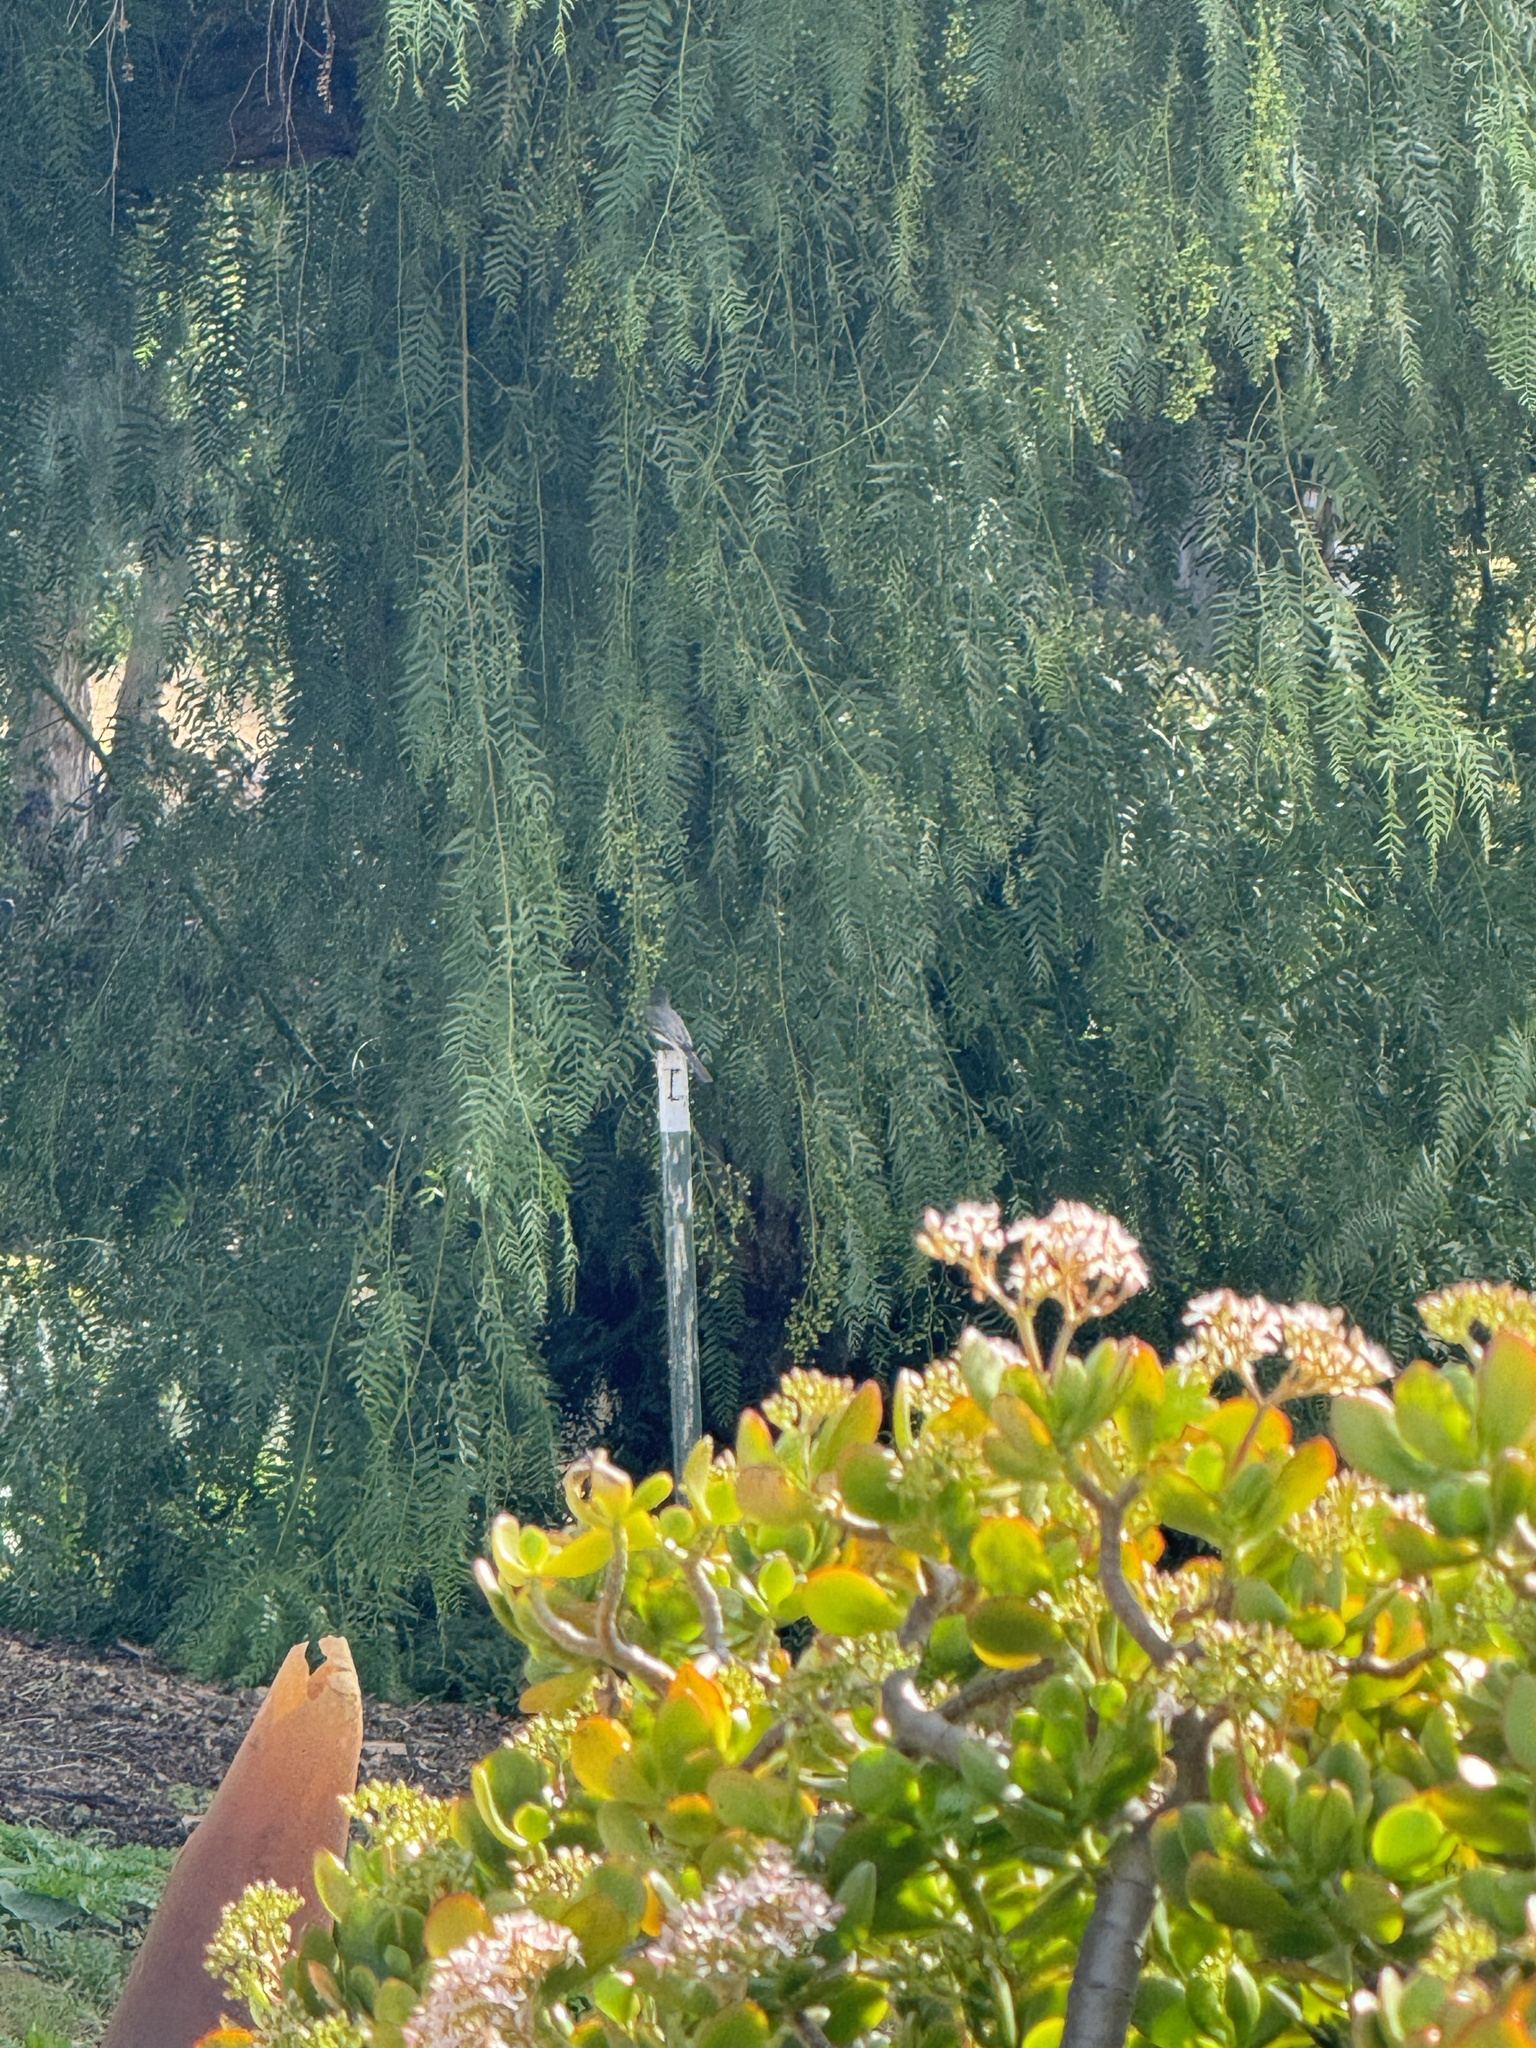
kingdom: Animalia
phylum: Chordata
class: Aves
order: Passeriformes
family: Tyrannidae
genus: Sayornis
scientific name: Sayornis nigricans
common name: Black phoebe
